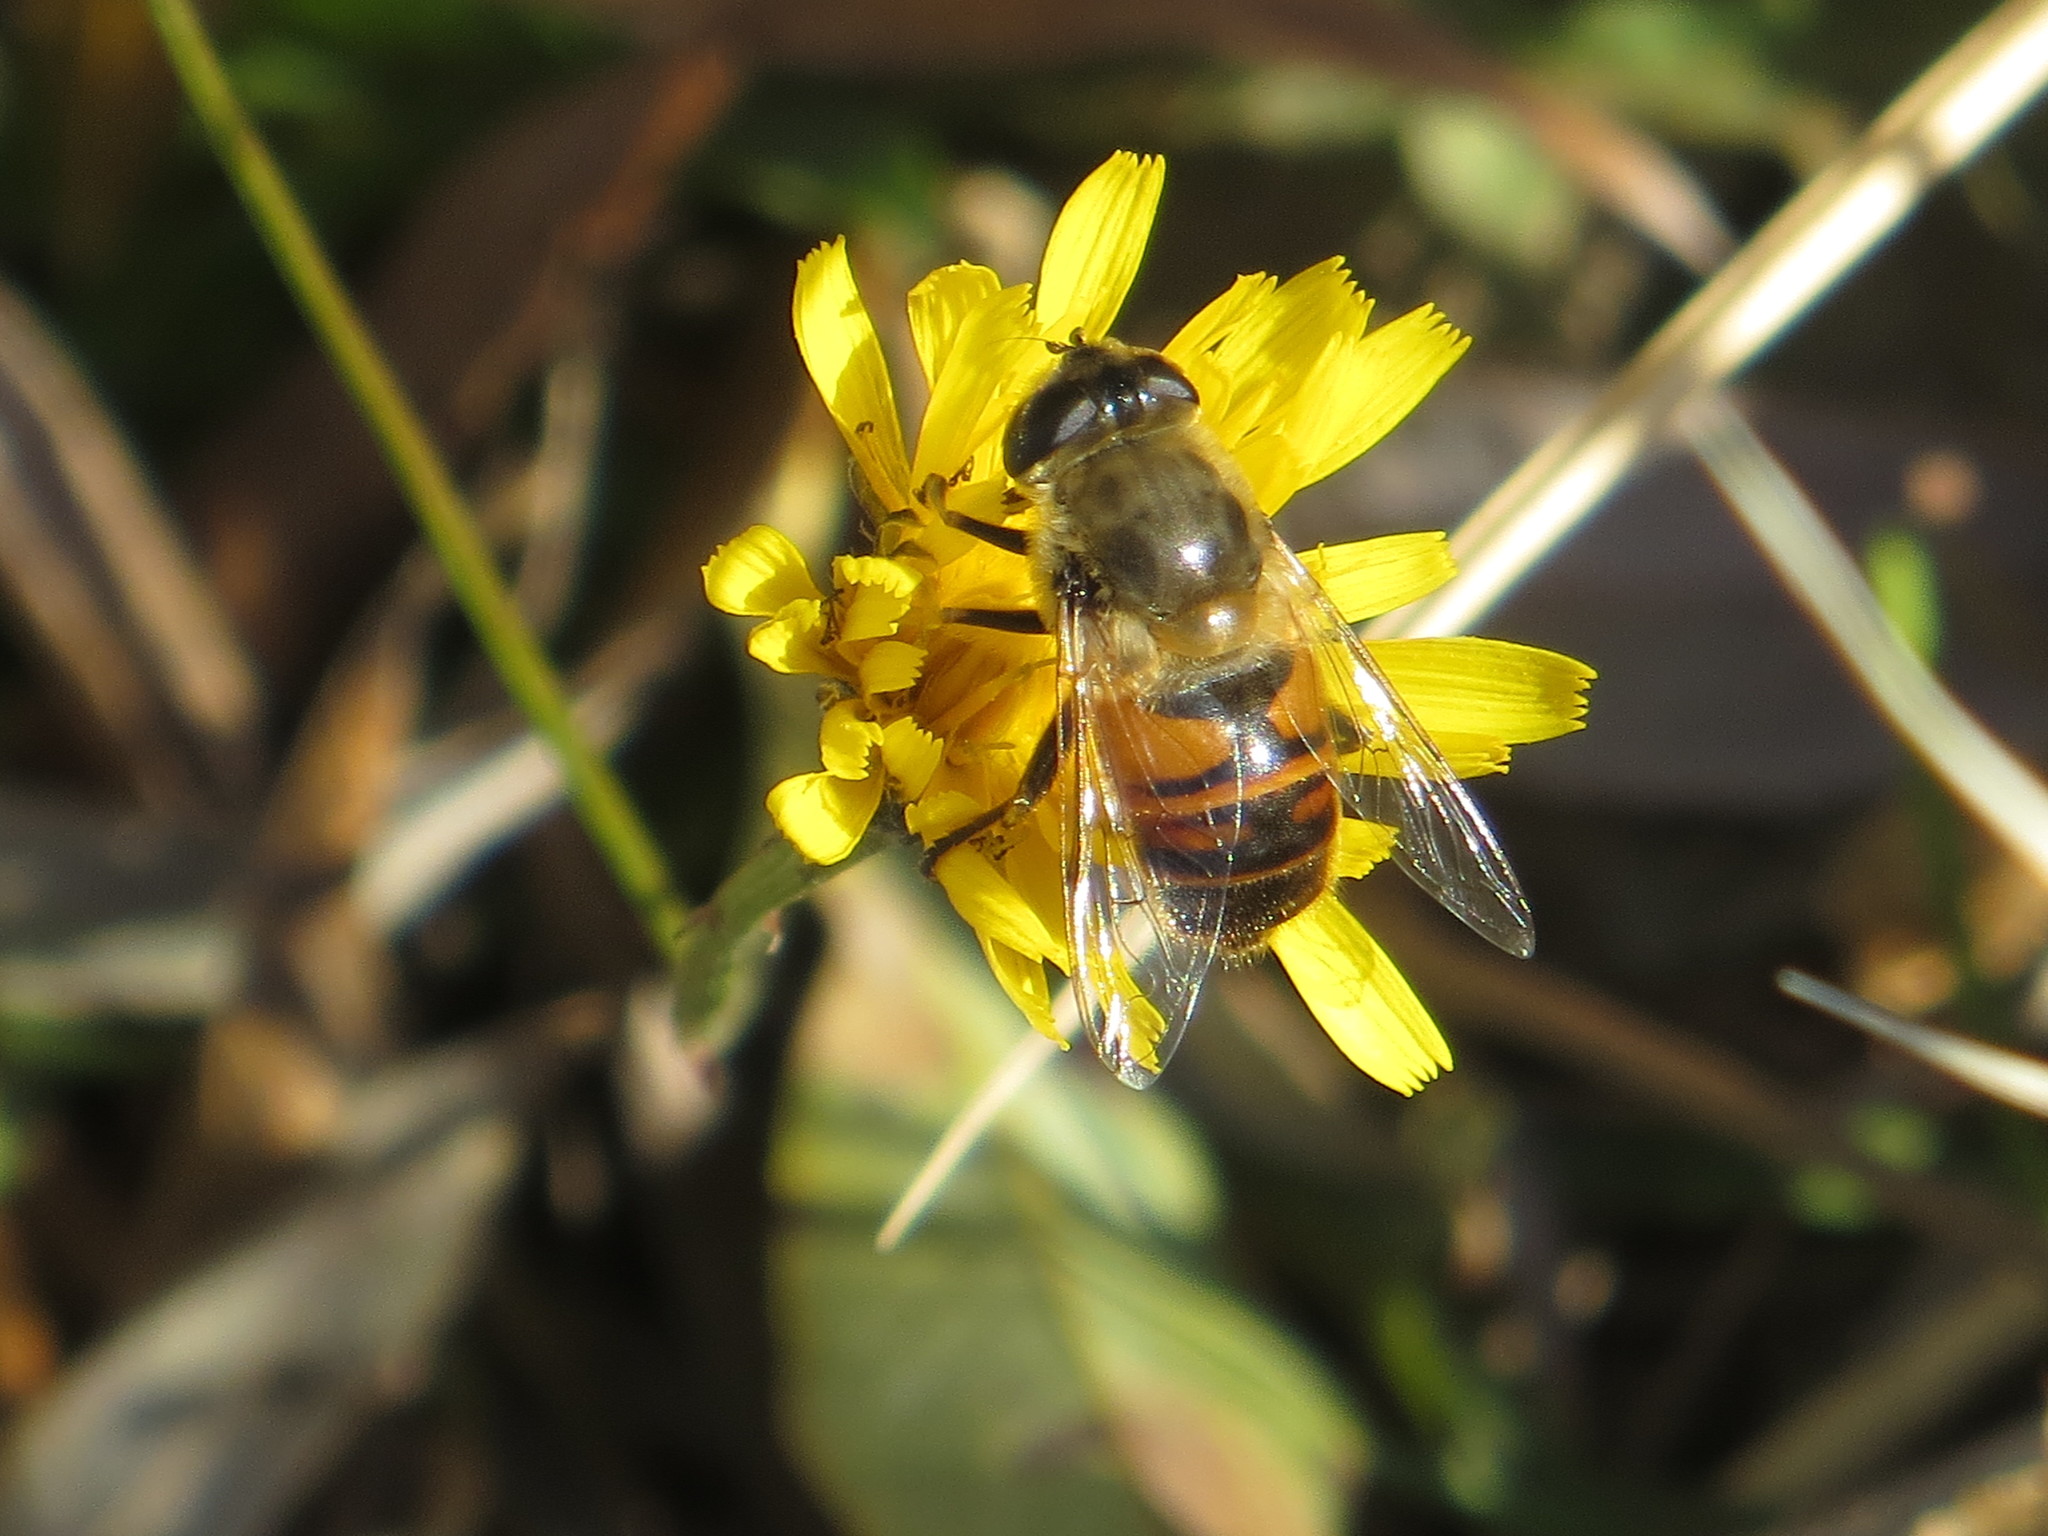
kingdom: Animalia
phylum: Arthropoda
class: Insecta
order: Diptera
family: Syrphidae
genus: Eristalis
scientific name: Eristalis tenax
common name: Drone fly
